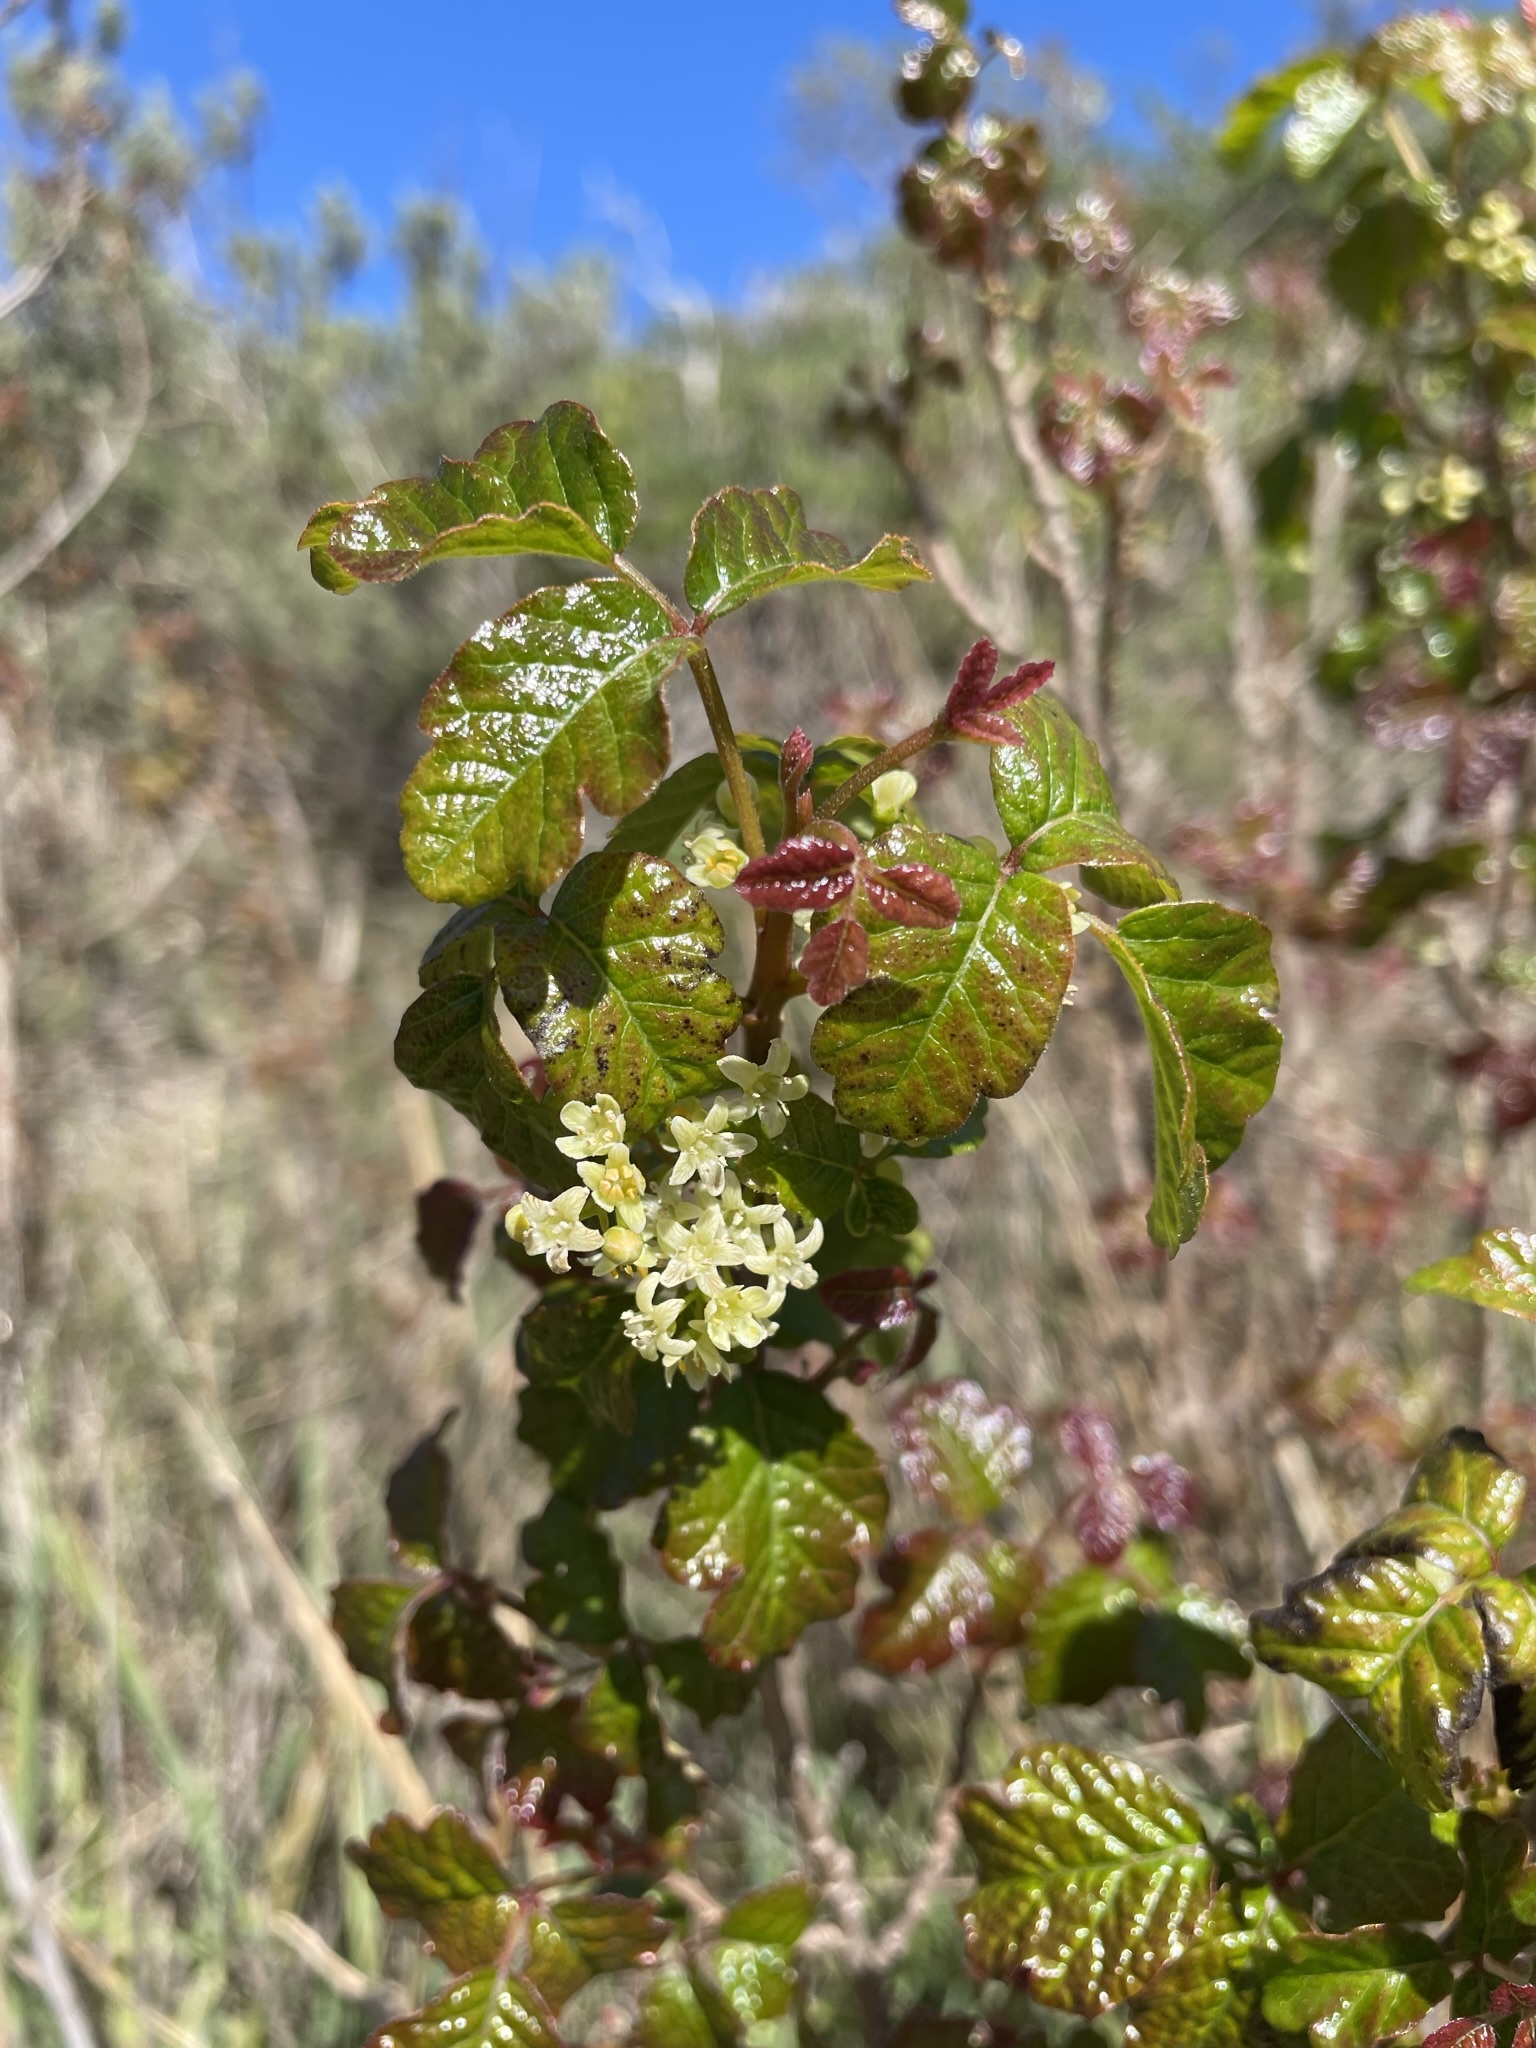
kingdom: Plantae
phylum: Tracheophyta
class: Magnoliopsida
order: Sapindales
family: Anacardiaceae
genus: Toxicodendron
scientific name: Toxicodendron diversilobum
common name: Pacific poison-oak
